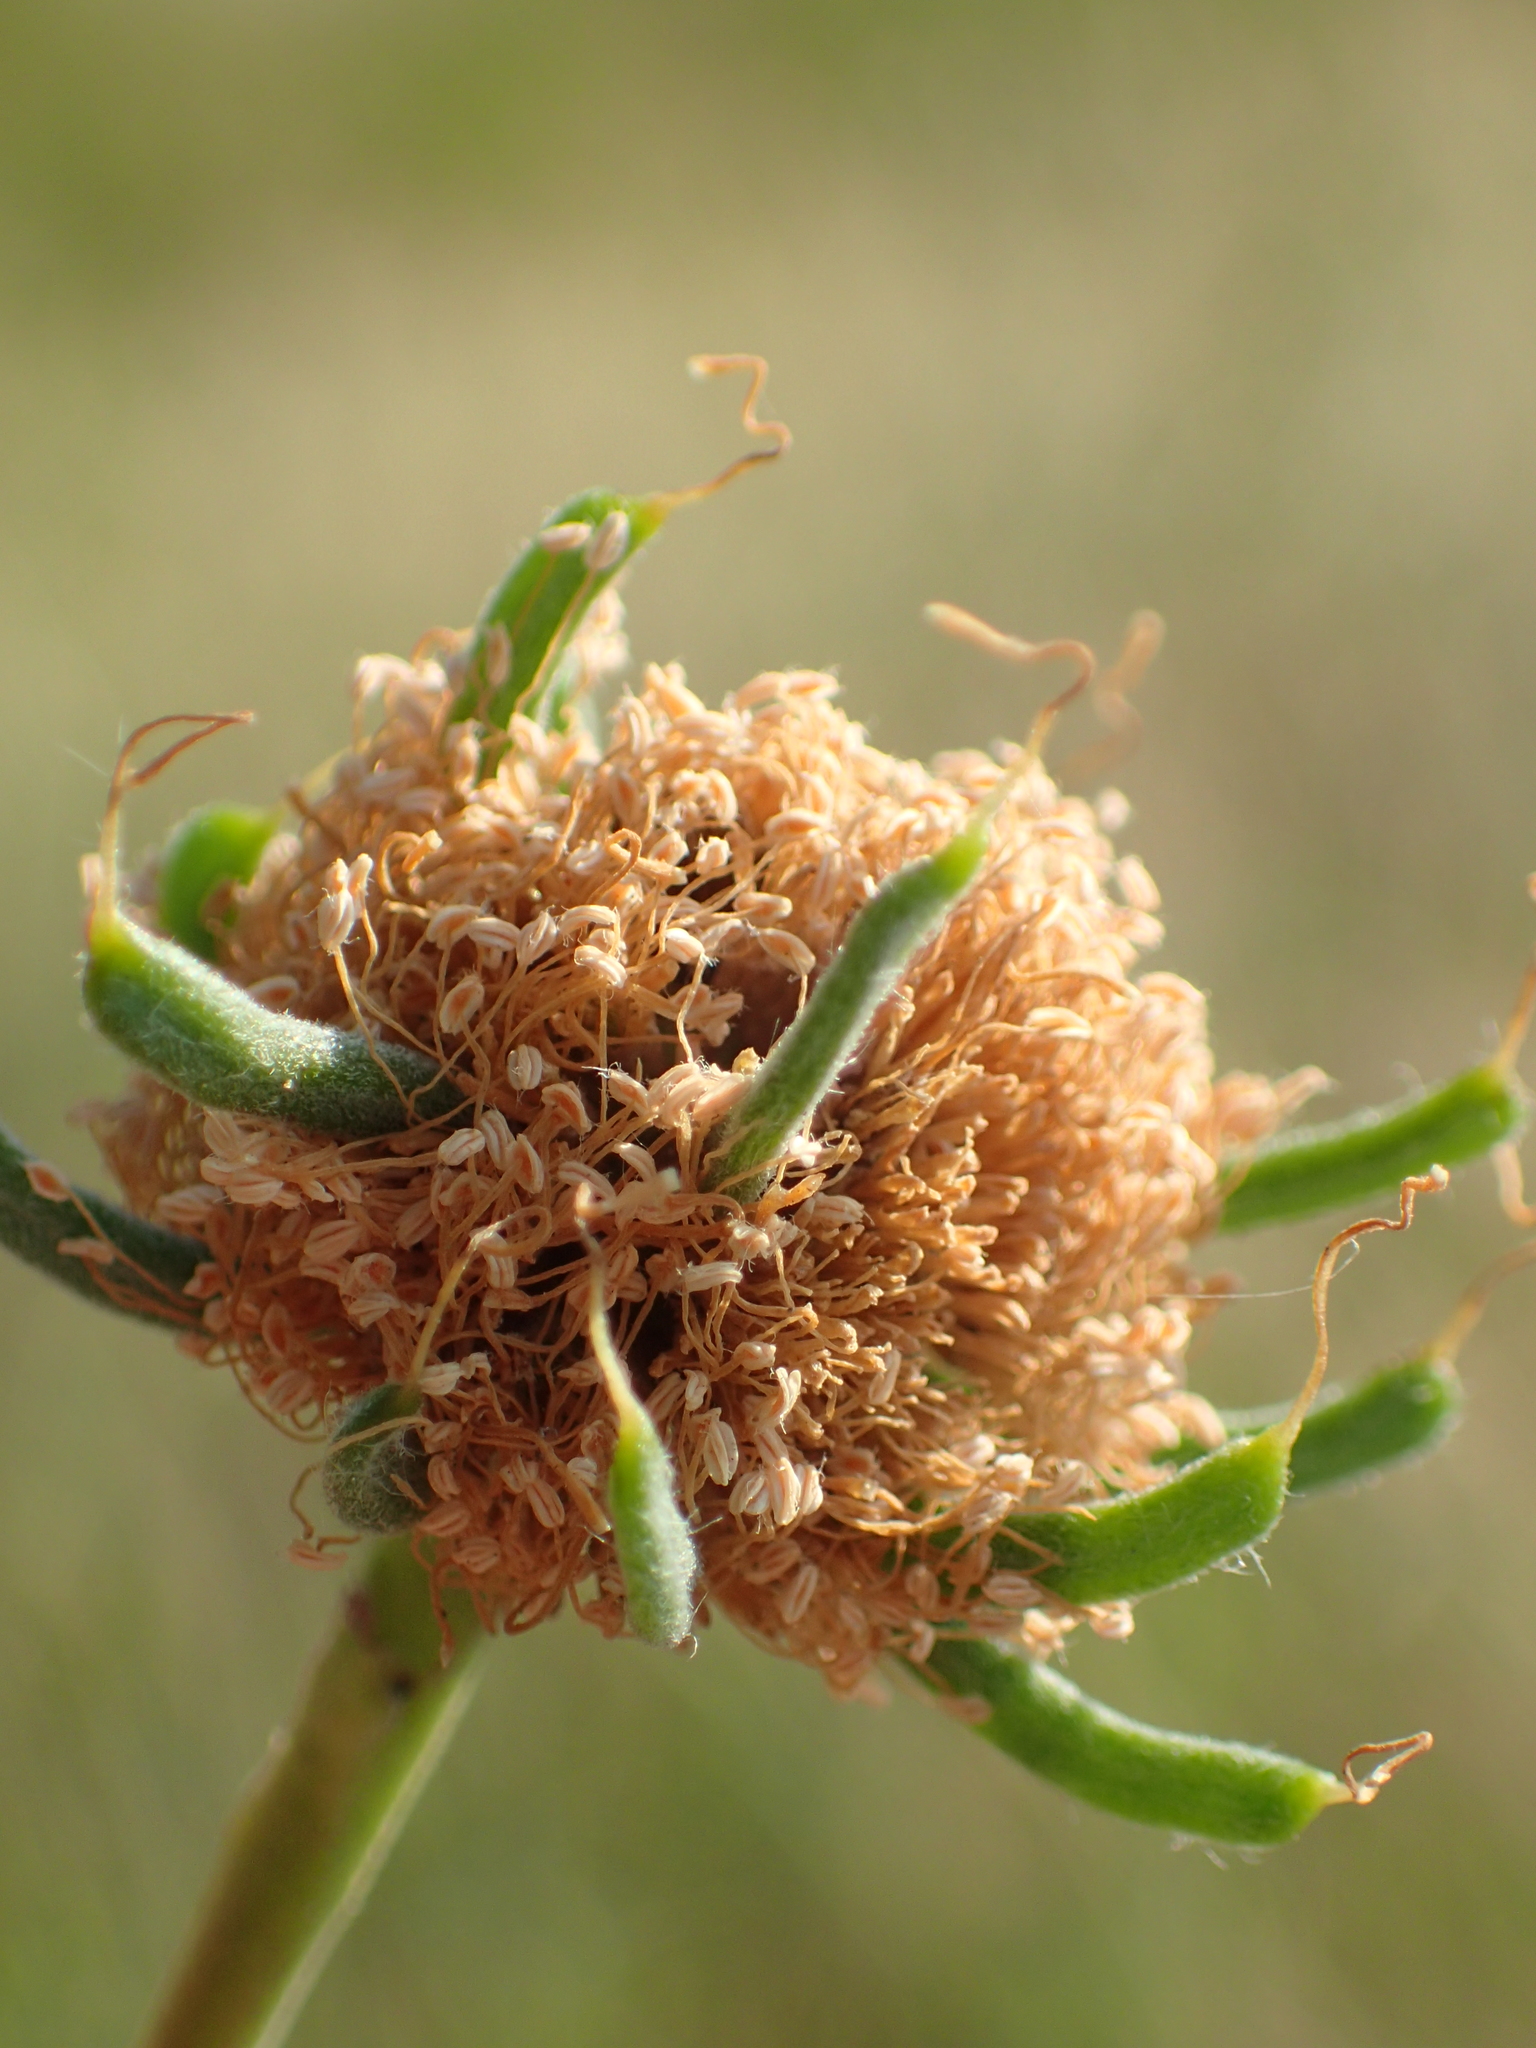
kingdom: Plantae
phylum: Tracheophyta
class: Magnoliopsida
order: Fabales
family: Fabaceae
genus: Leucaena
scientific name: Leucaena leucocephala
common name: White leadtree
